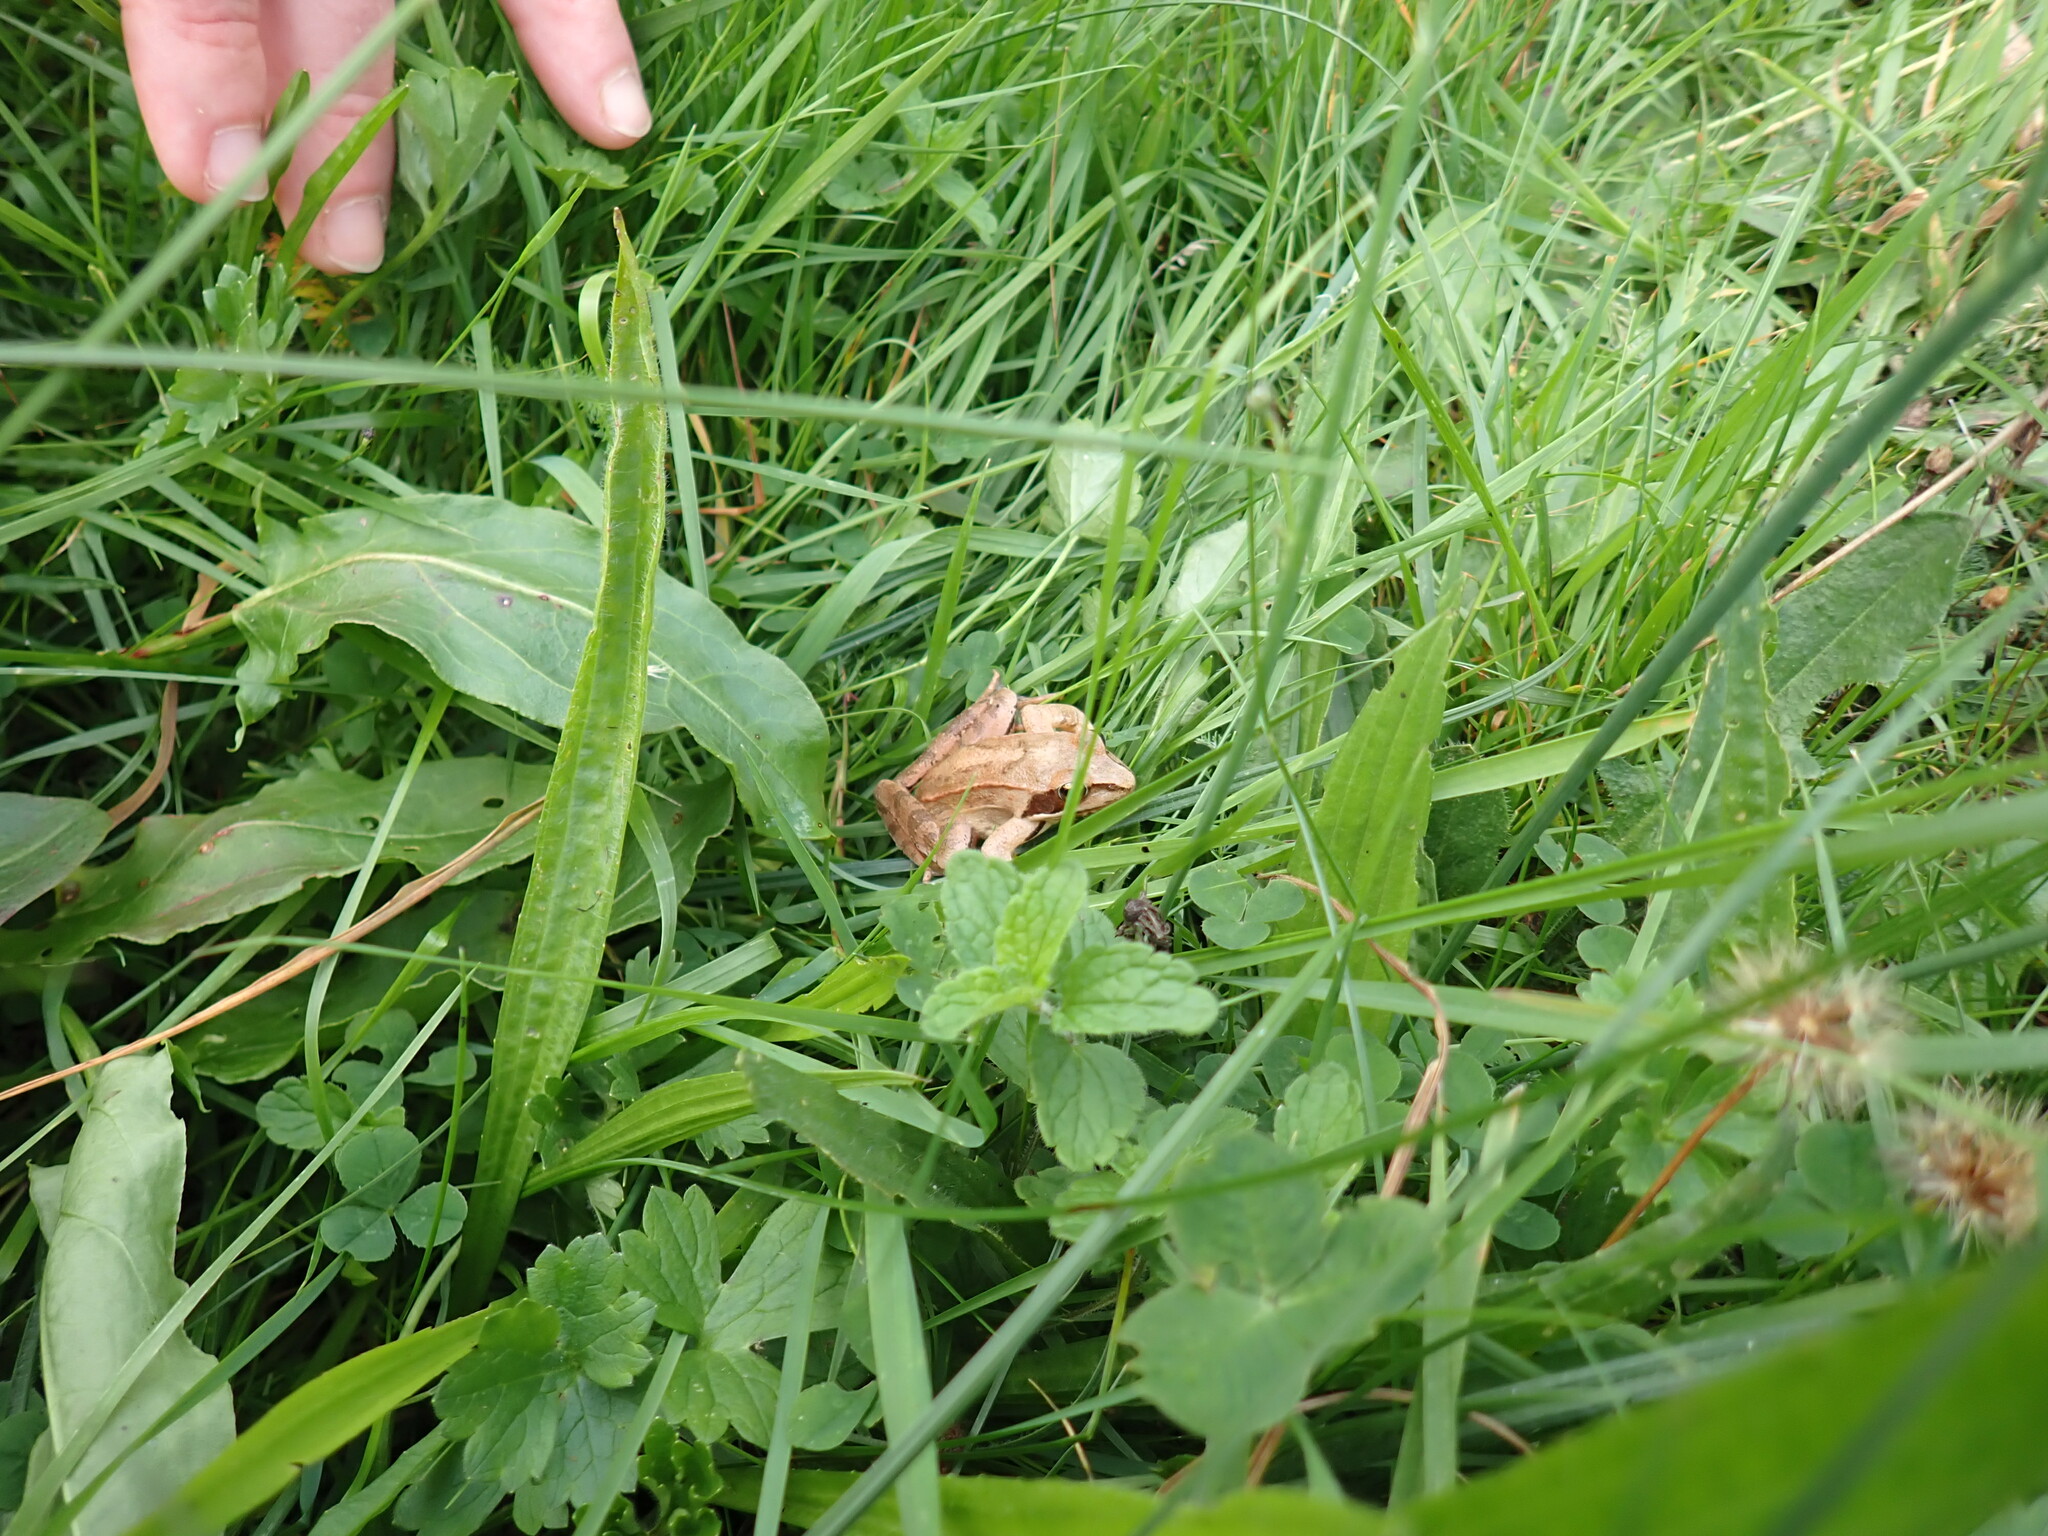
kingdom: Animalia
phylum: Chordata
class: Amphibia
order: Anura
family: Ranidae
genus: Rana
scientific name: Rana dalmatina
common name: Agile frog
